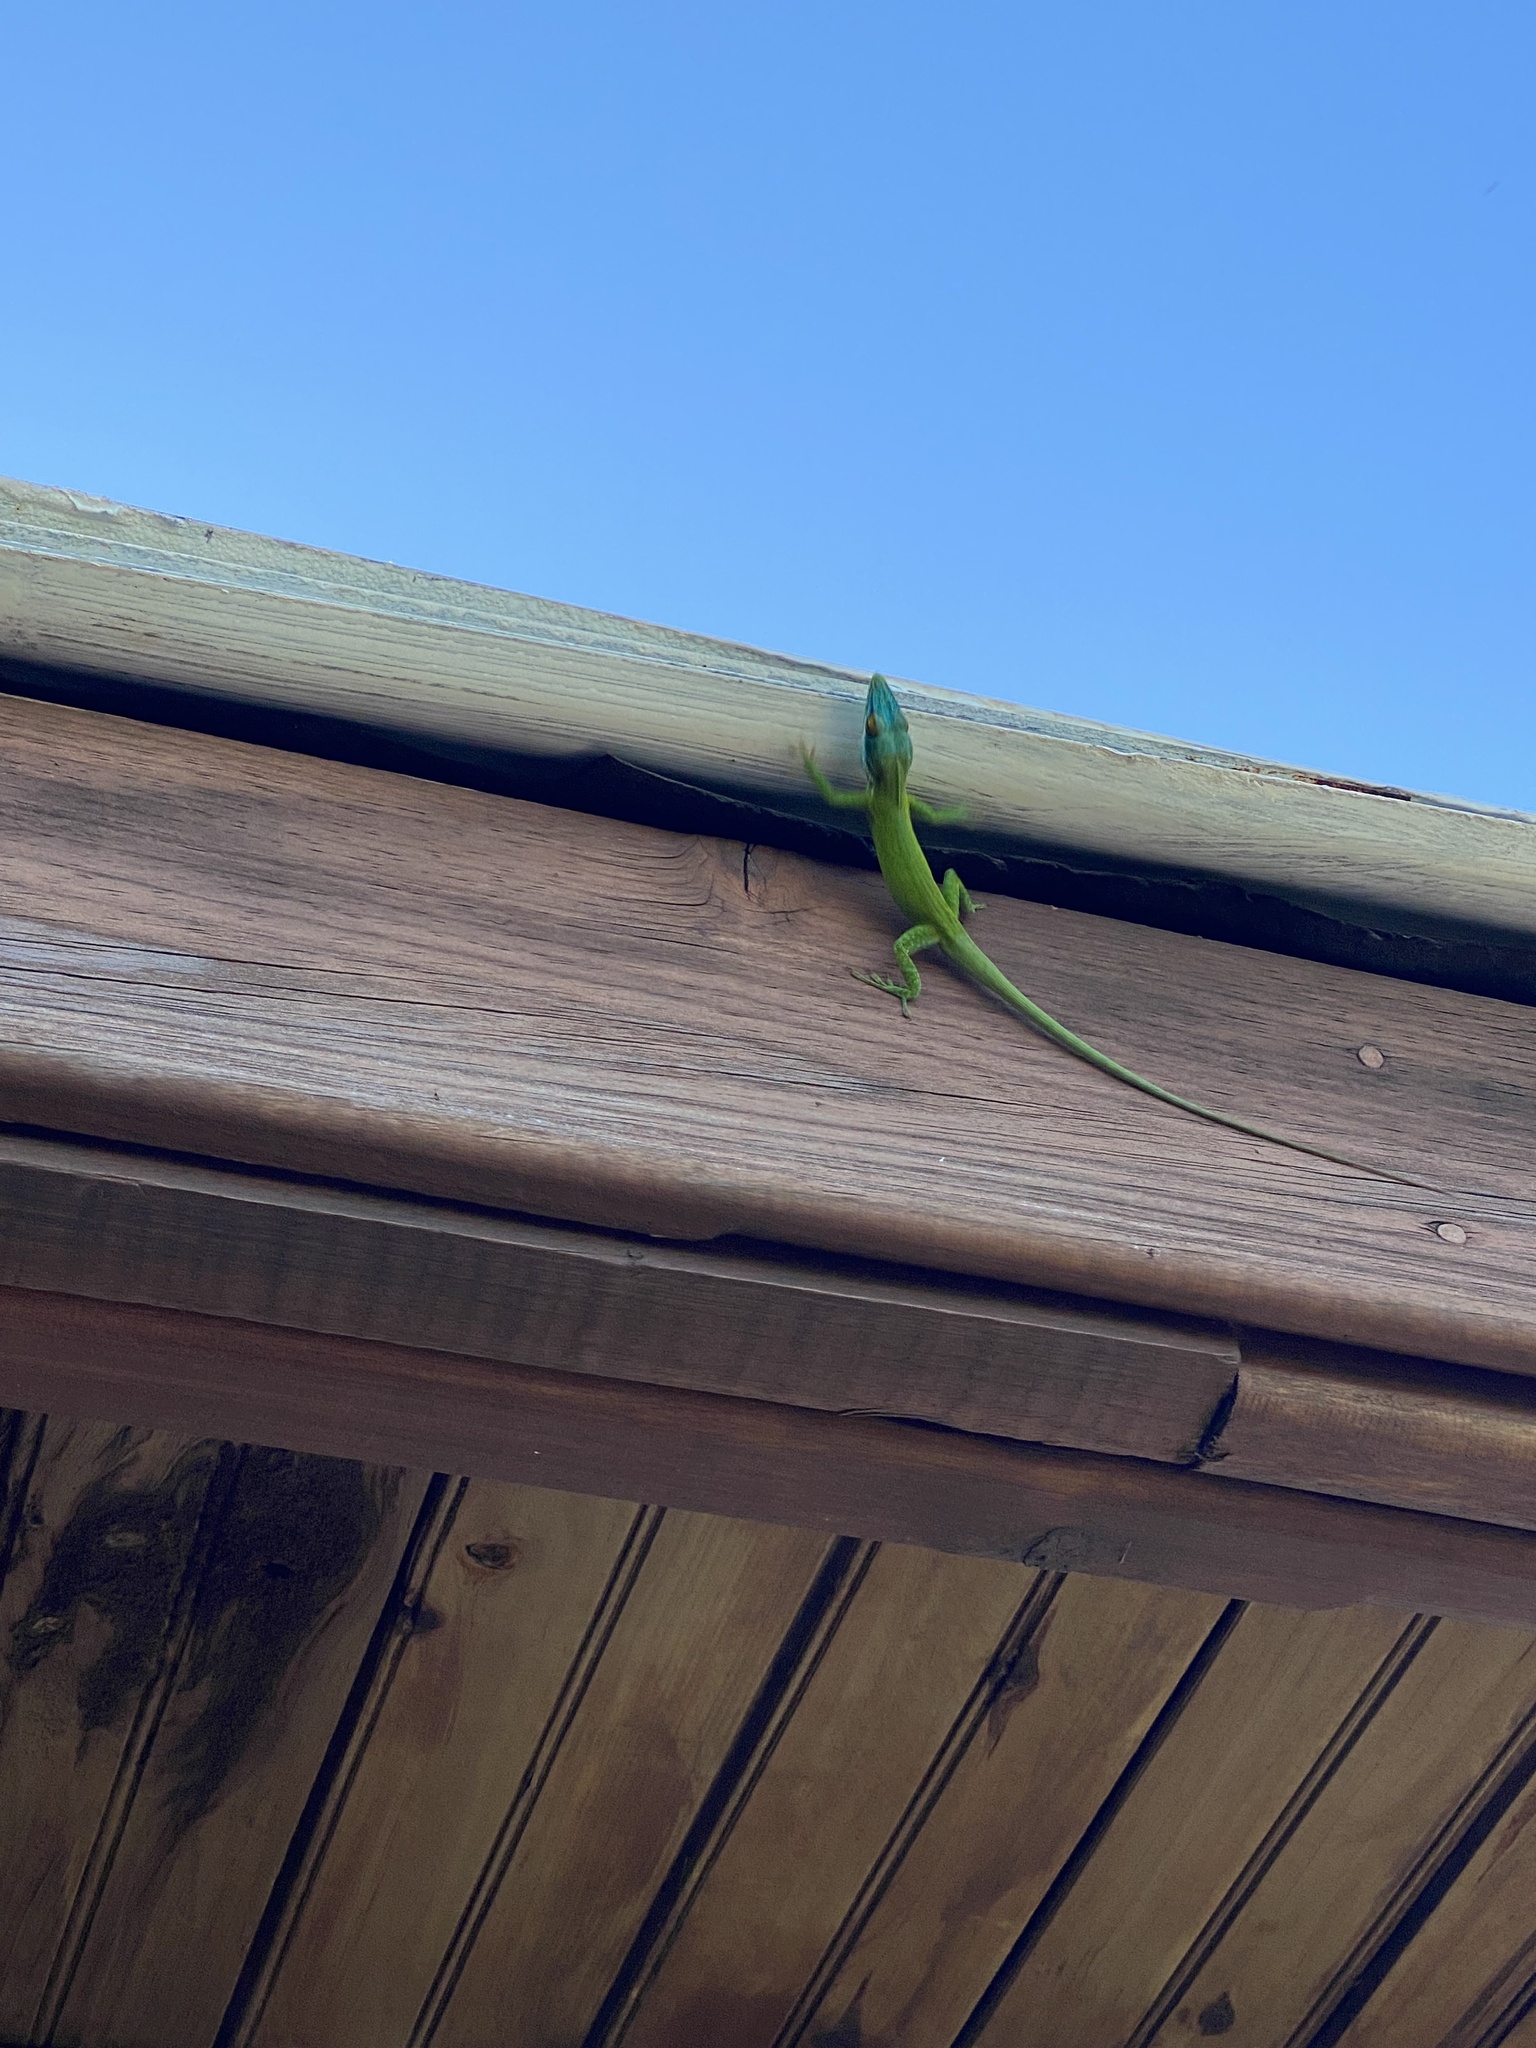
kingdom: Animalia
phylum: Chordata
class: Squamata
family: Dactyloidae
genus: Anolis
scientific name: Anolis allisoni
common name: Allison's anole
